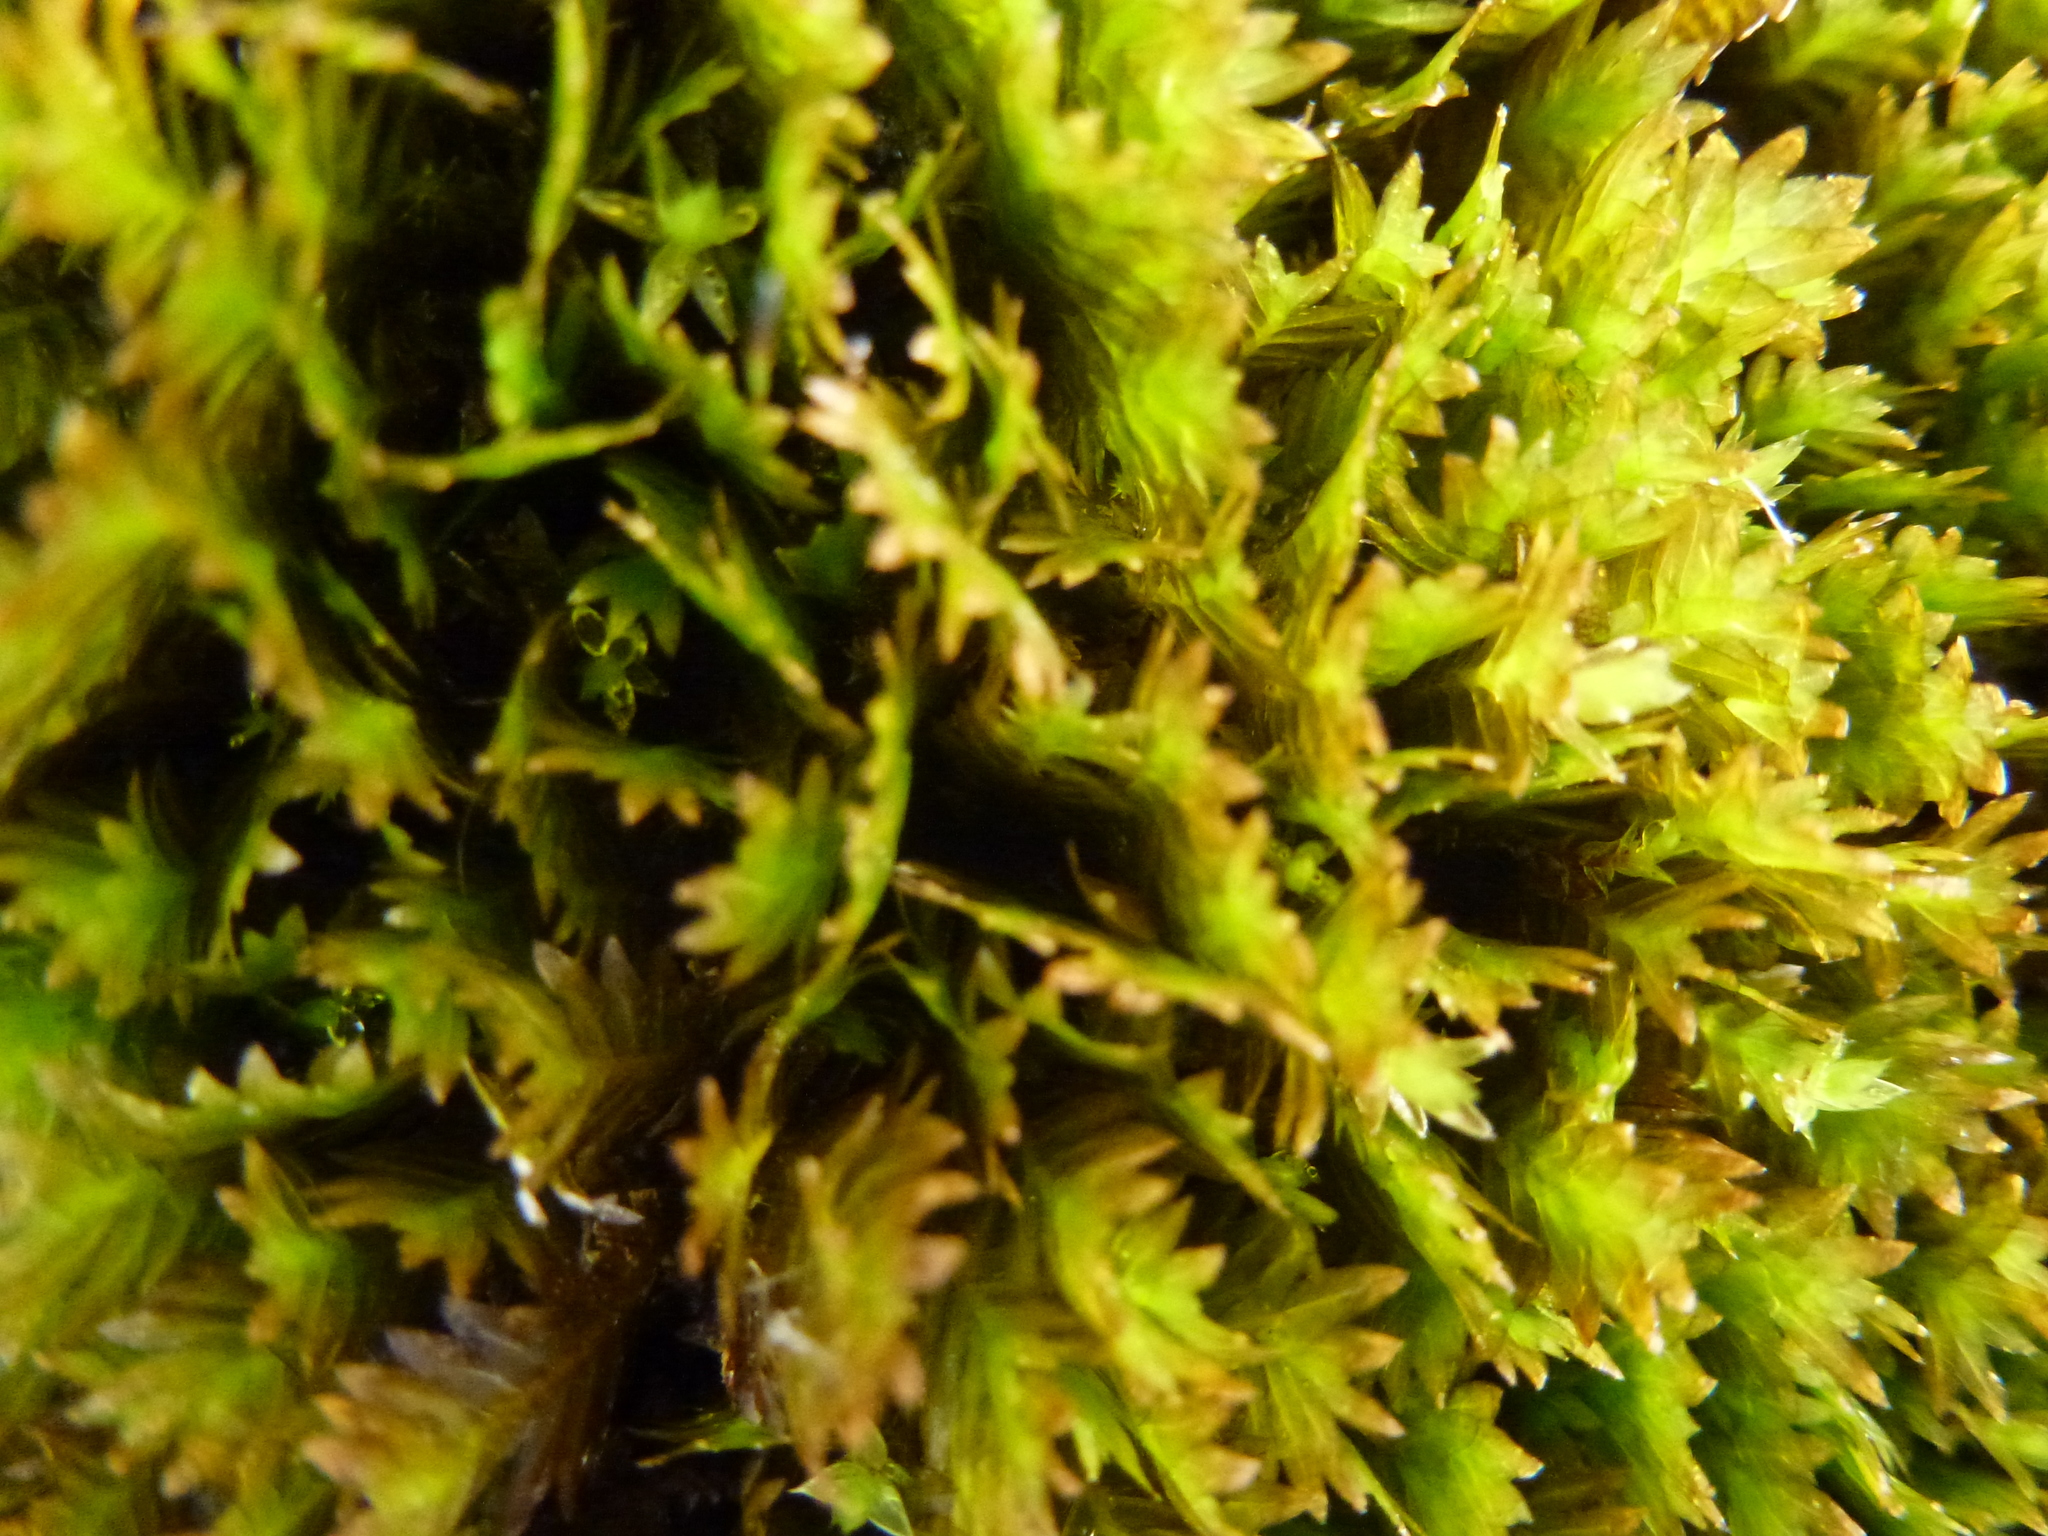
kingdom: Plantae
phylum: Bryophyta
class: Bryopsida
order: Dicranales
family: Fissidentaceae
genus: Fissidens
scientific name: Fissidens dubius
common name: Rock pocket moss
